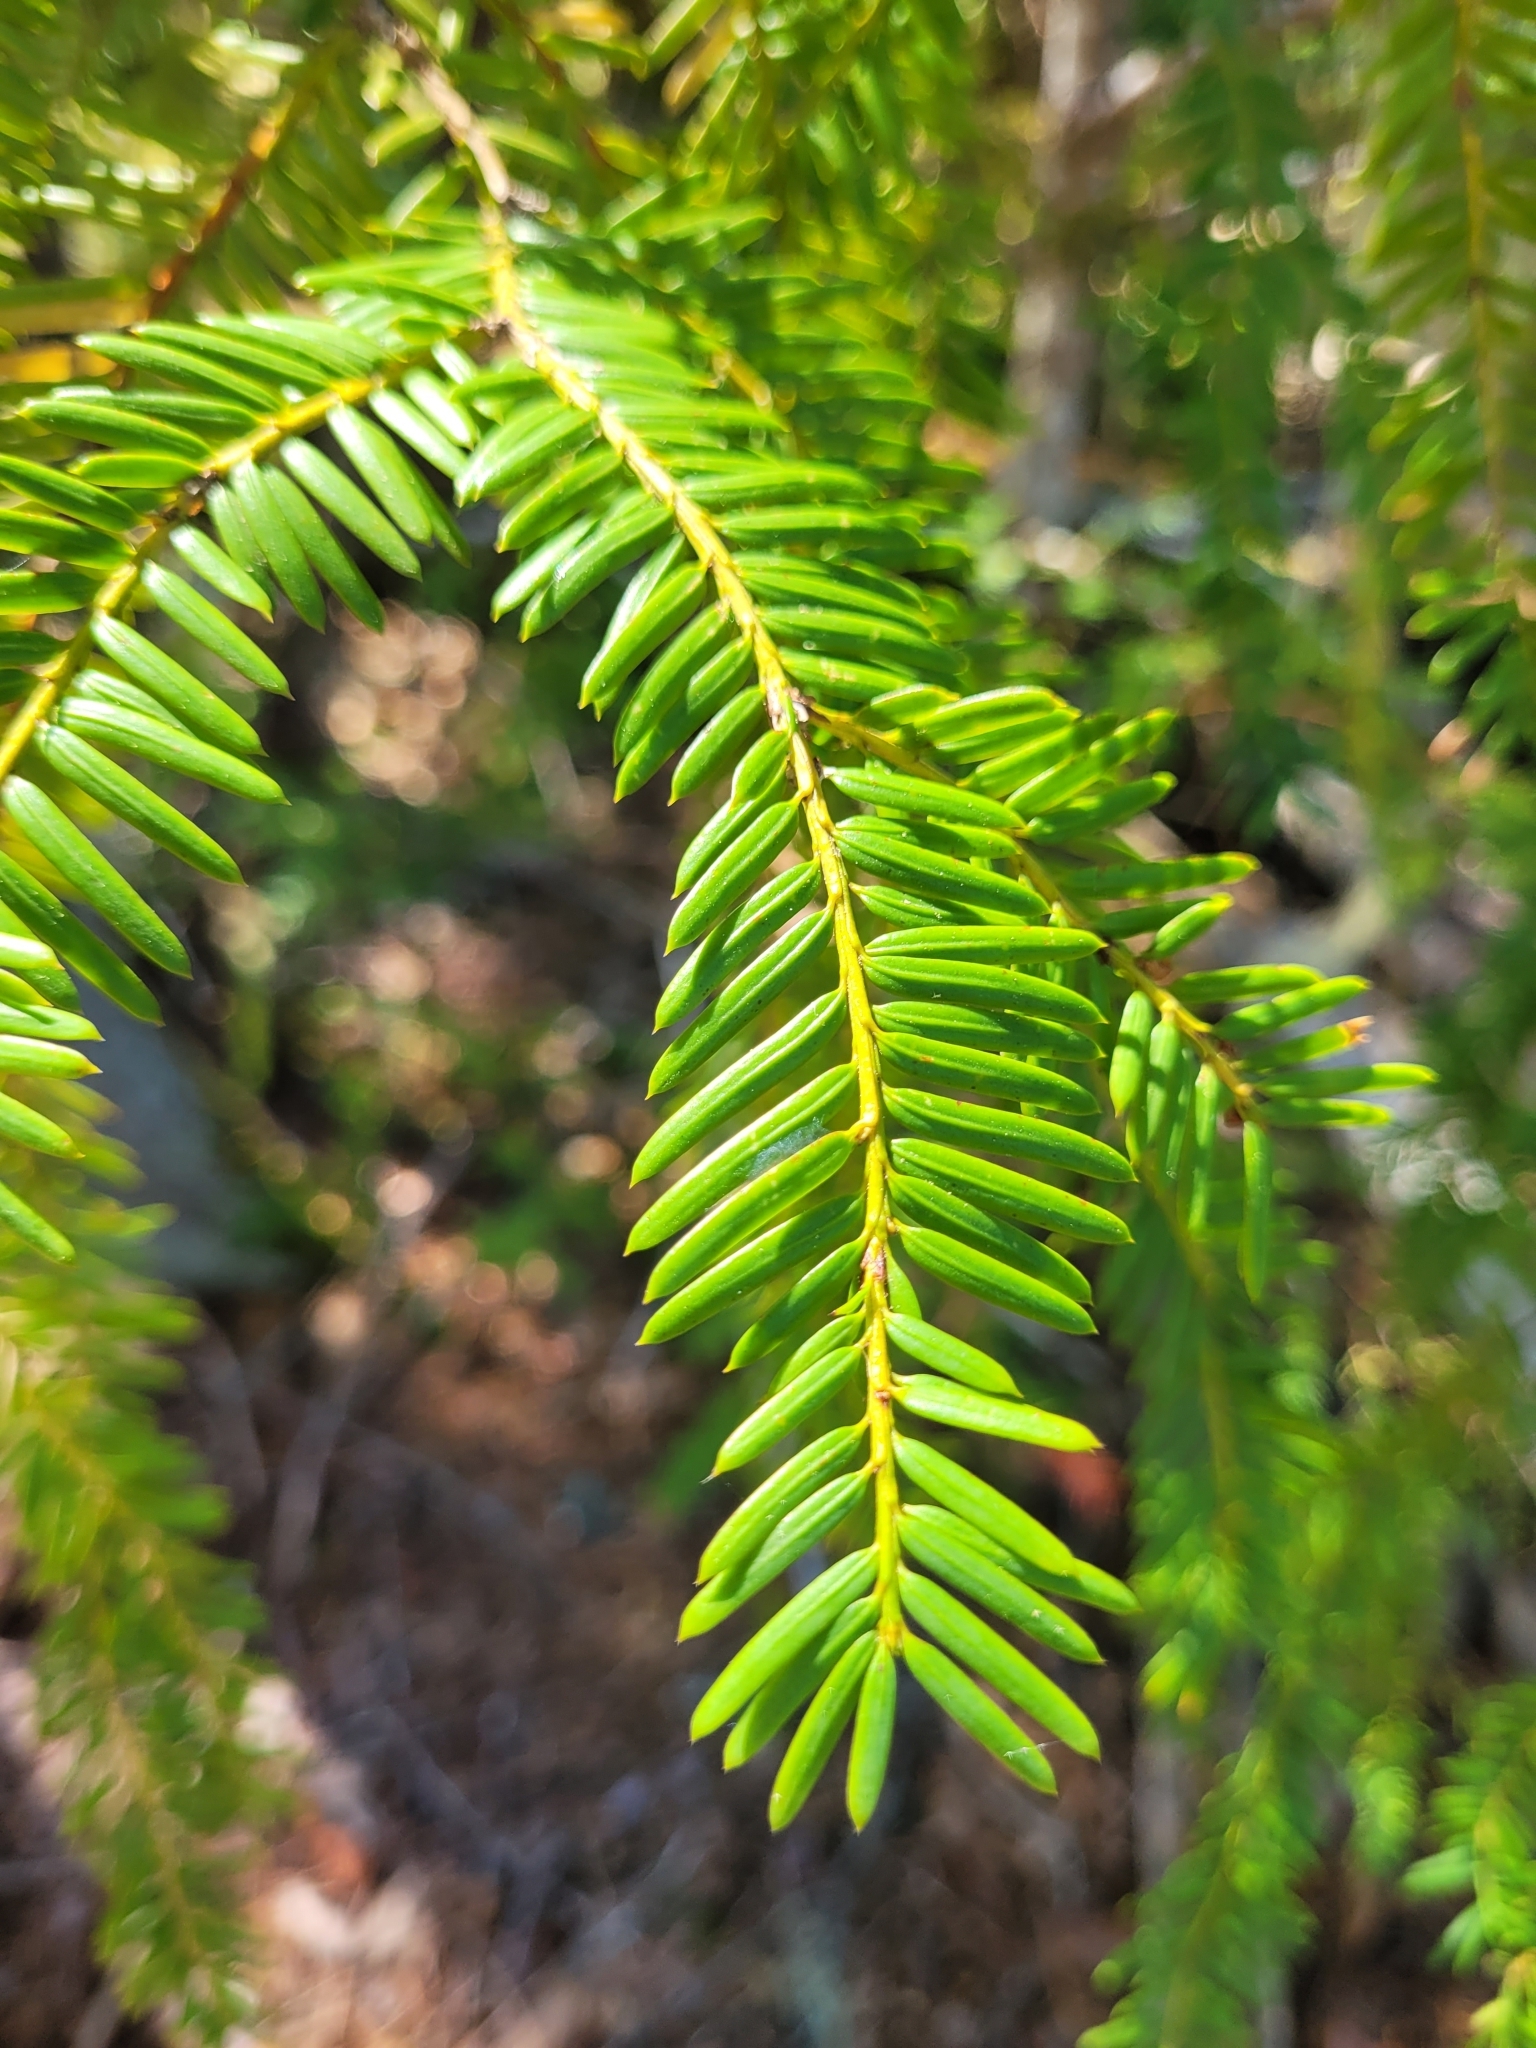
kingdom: Plantae
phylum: Tracheophyta
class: Pinopsida
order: Pinales
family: Taxaceae
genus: Taxus
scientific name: Taxus brevifolia
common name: Pacific yew
